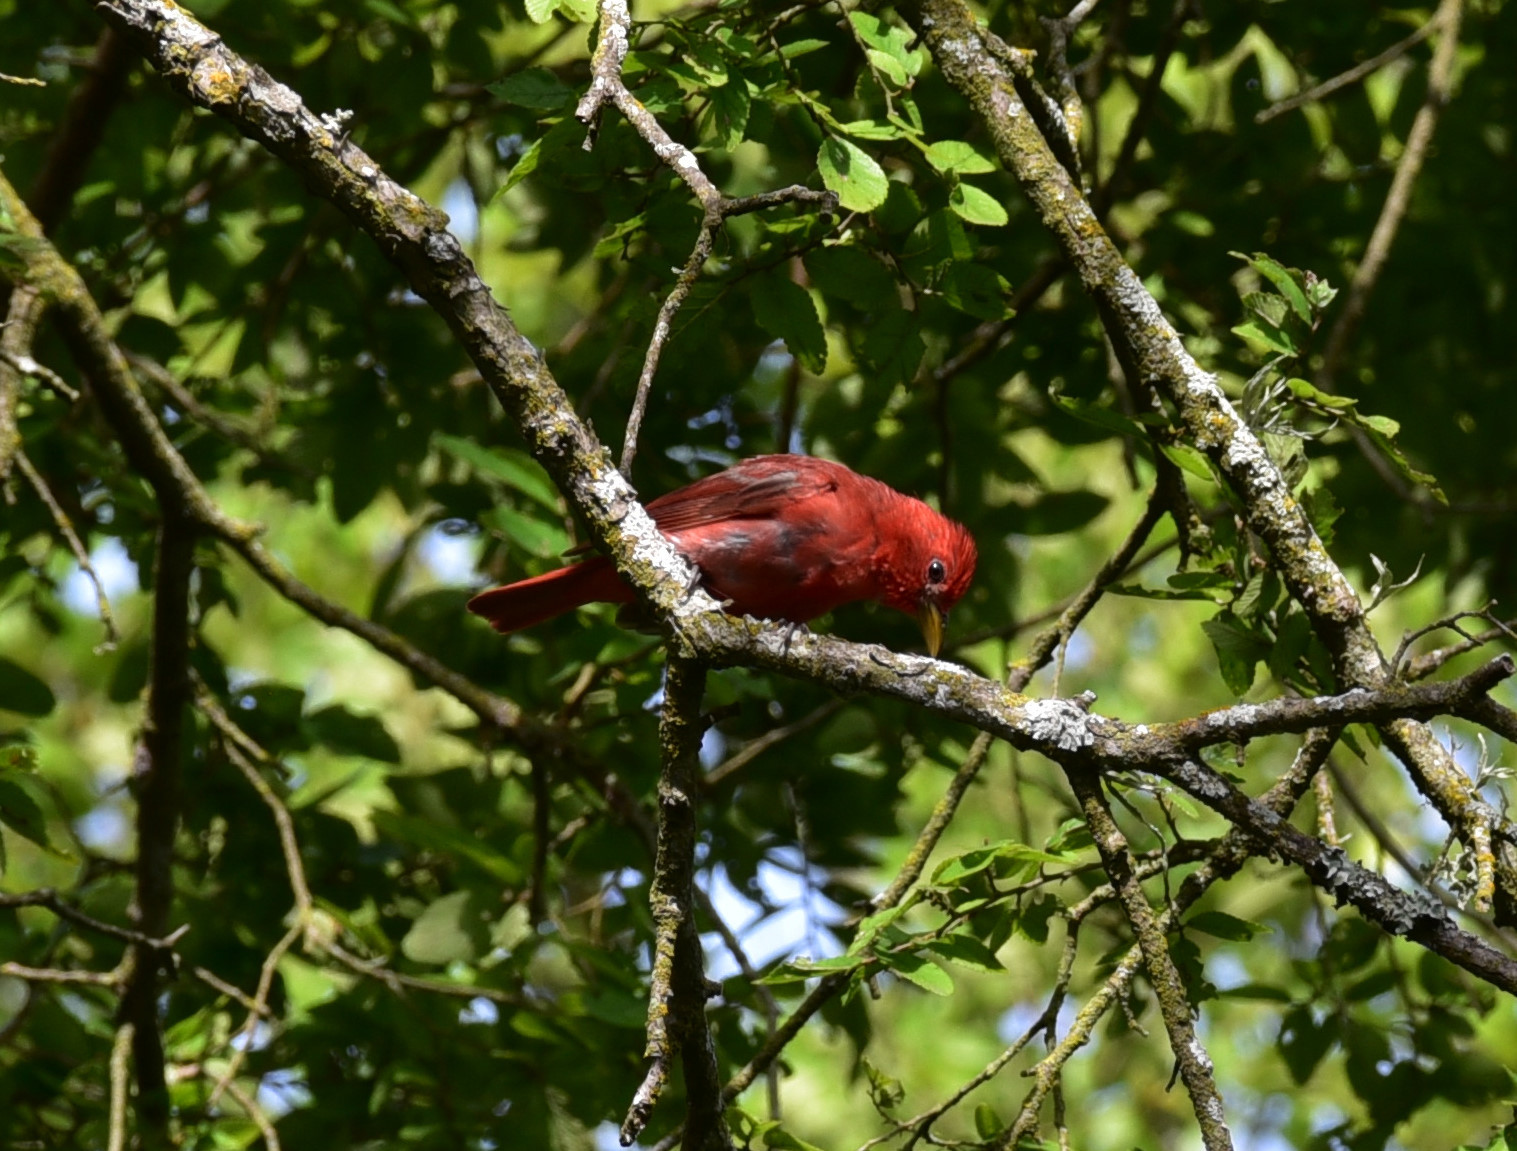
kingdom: Animalia
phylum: Chordata
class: Aves
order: Passeriformes
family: Cardinalidae
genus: Piranga
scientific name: Piranga rubra
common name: Summer tanager
